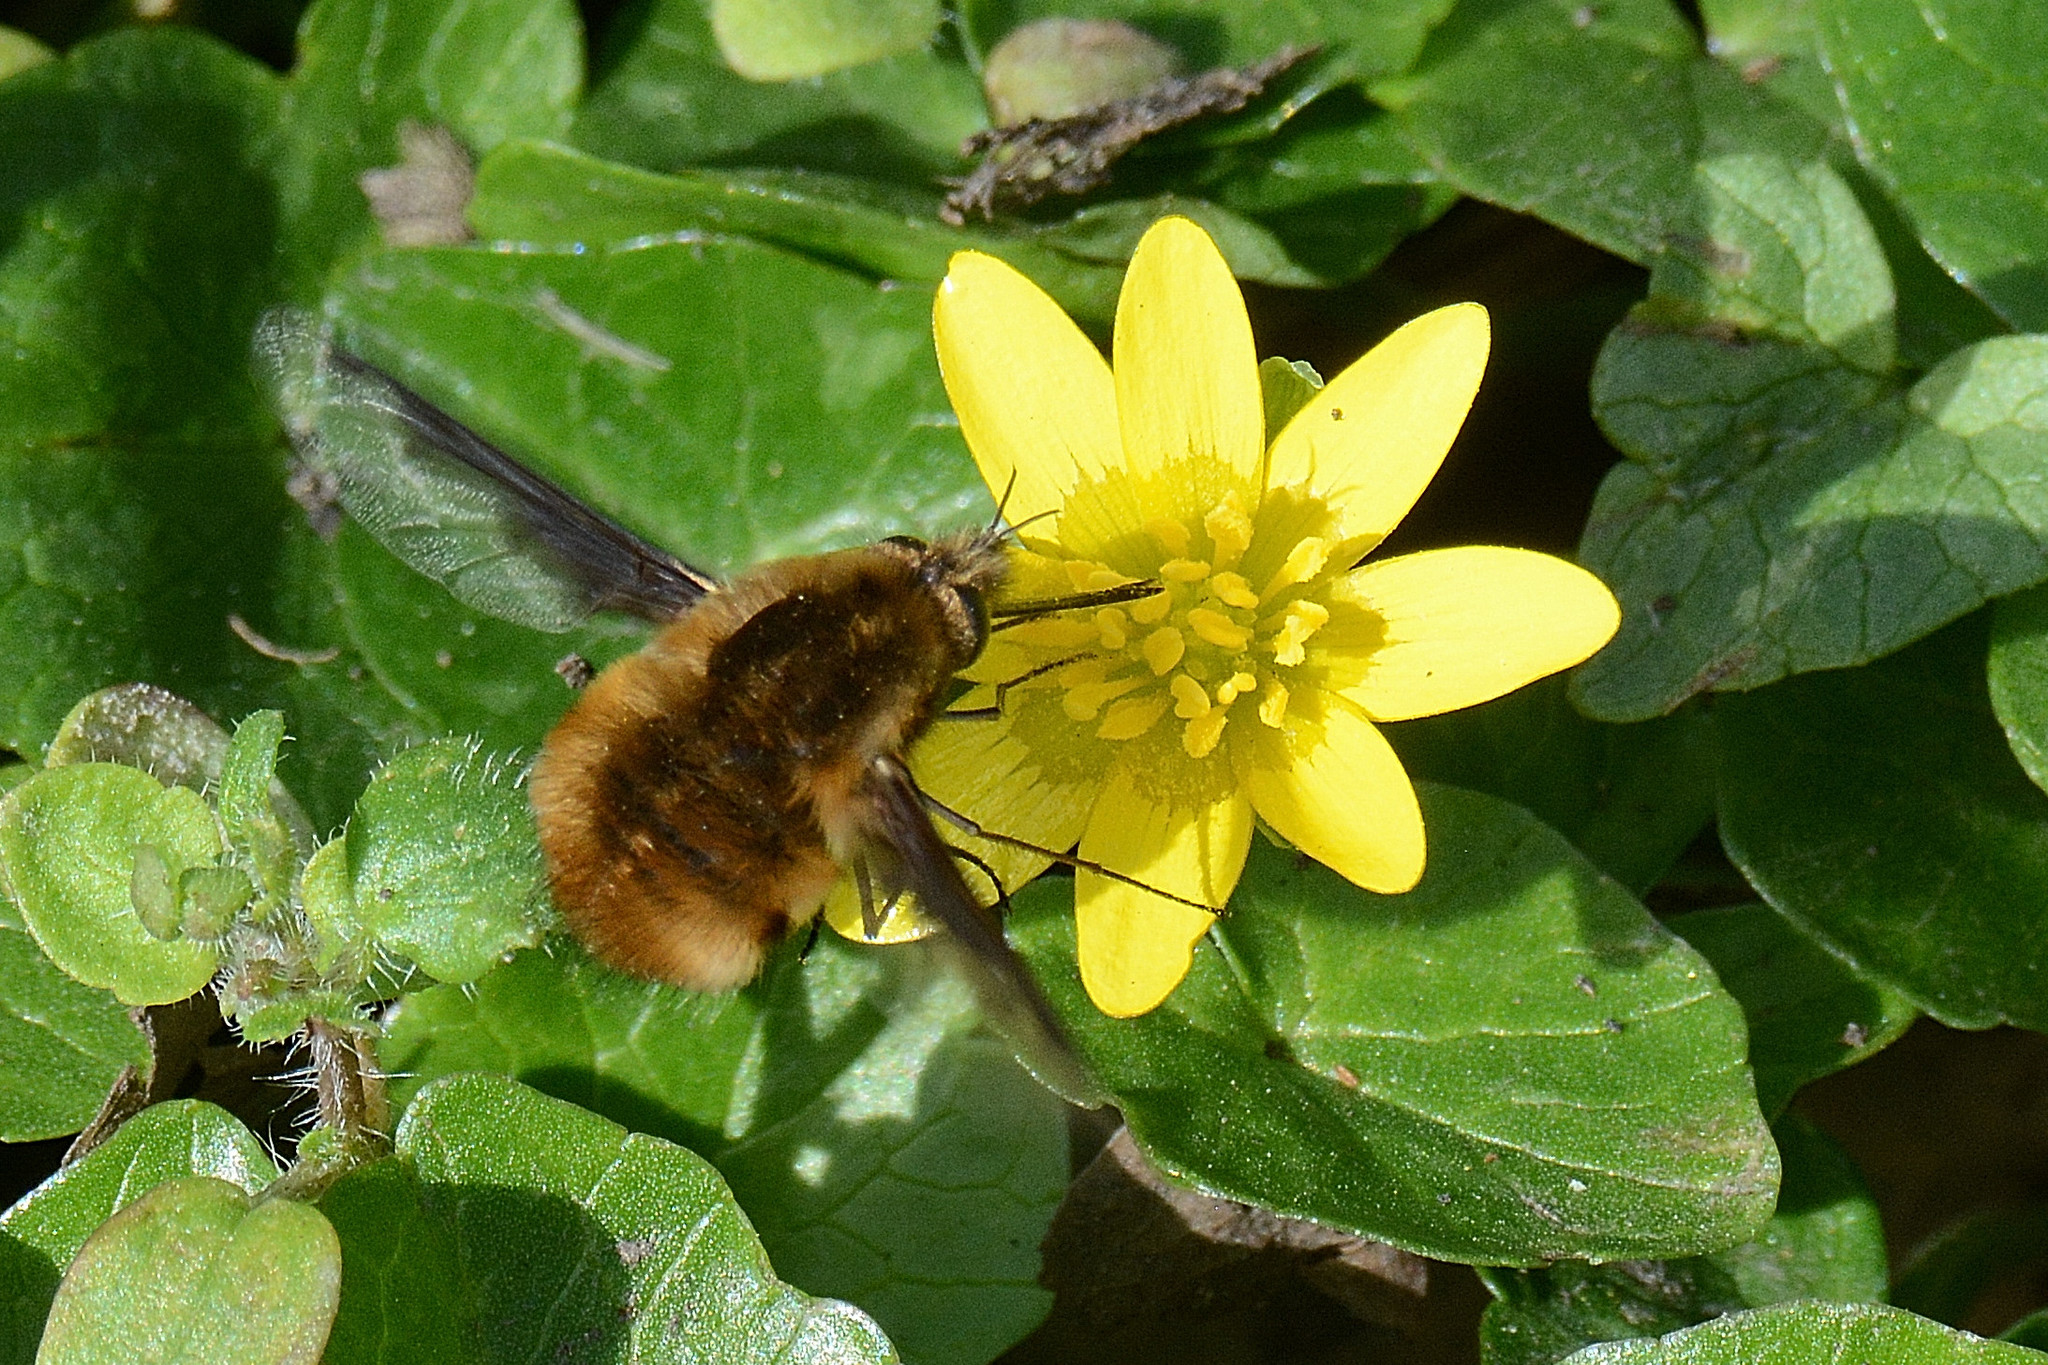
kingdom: Animalia
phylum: Arthropoda
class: Insecta
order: Diptera
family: Bombyliidae
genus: Bombylius
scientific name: Bombylius major
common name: Bee fly
